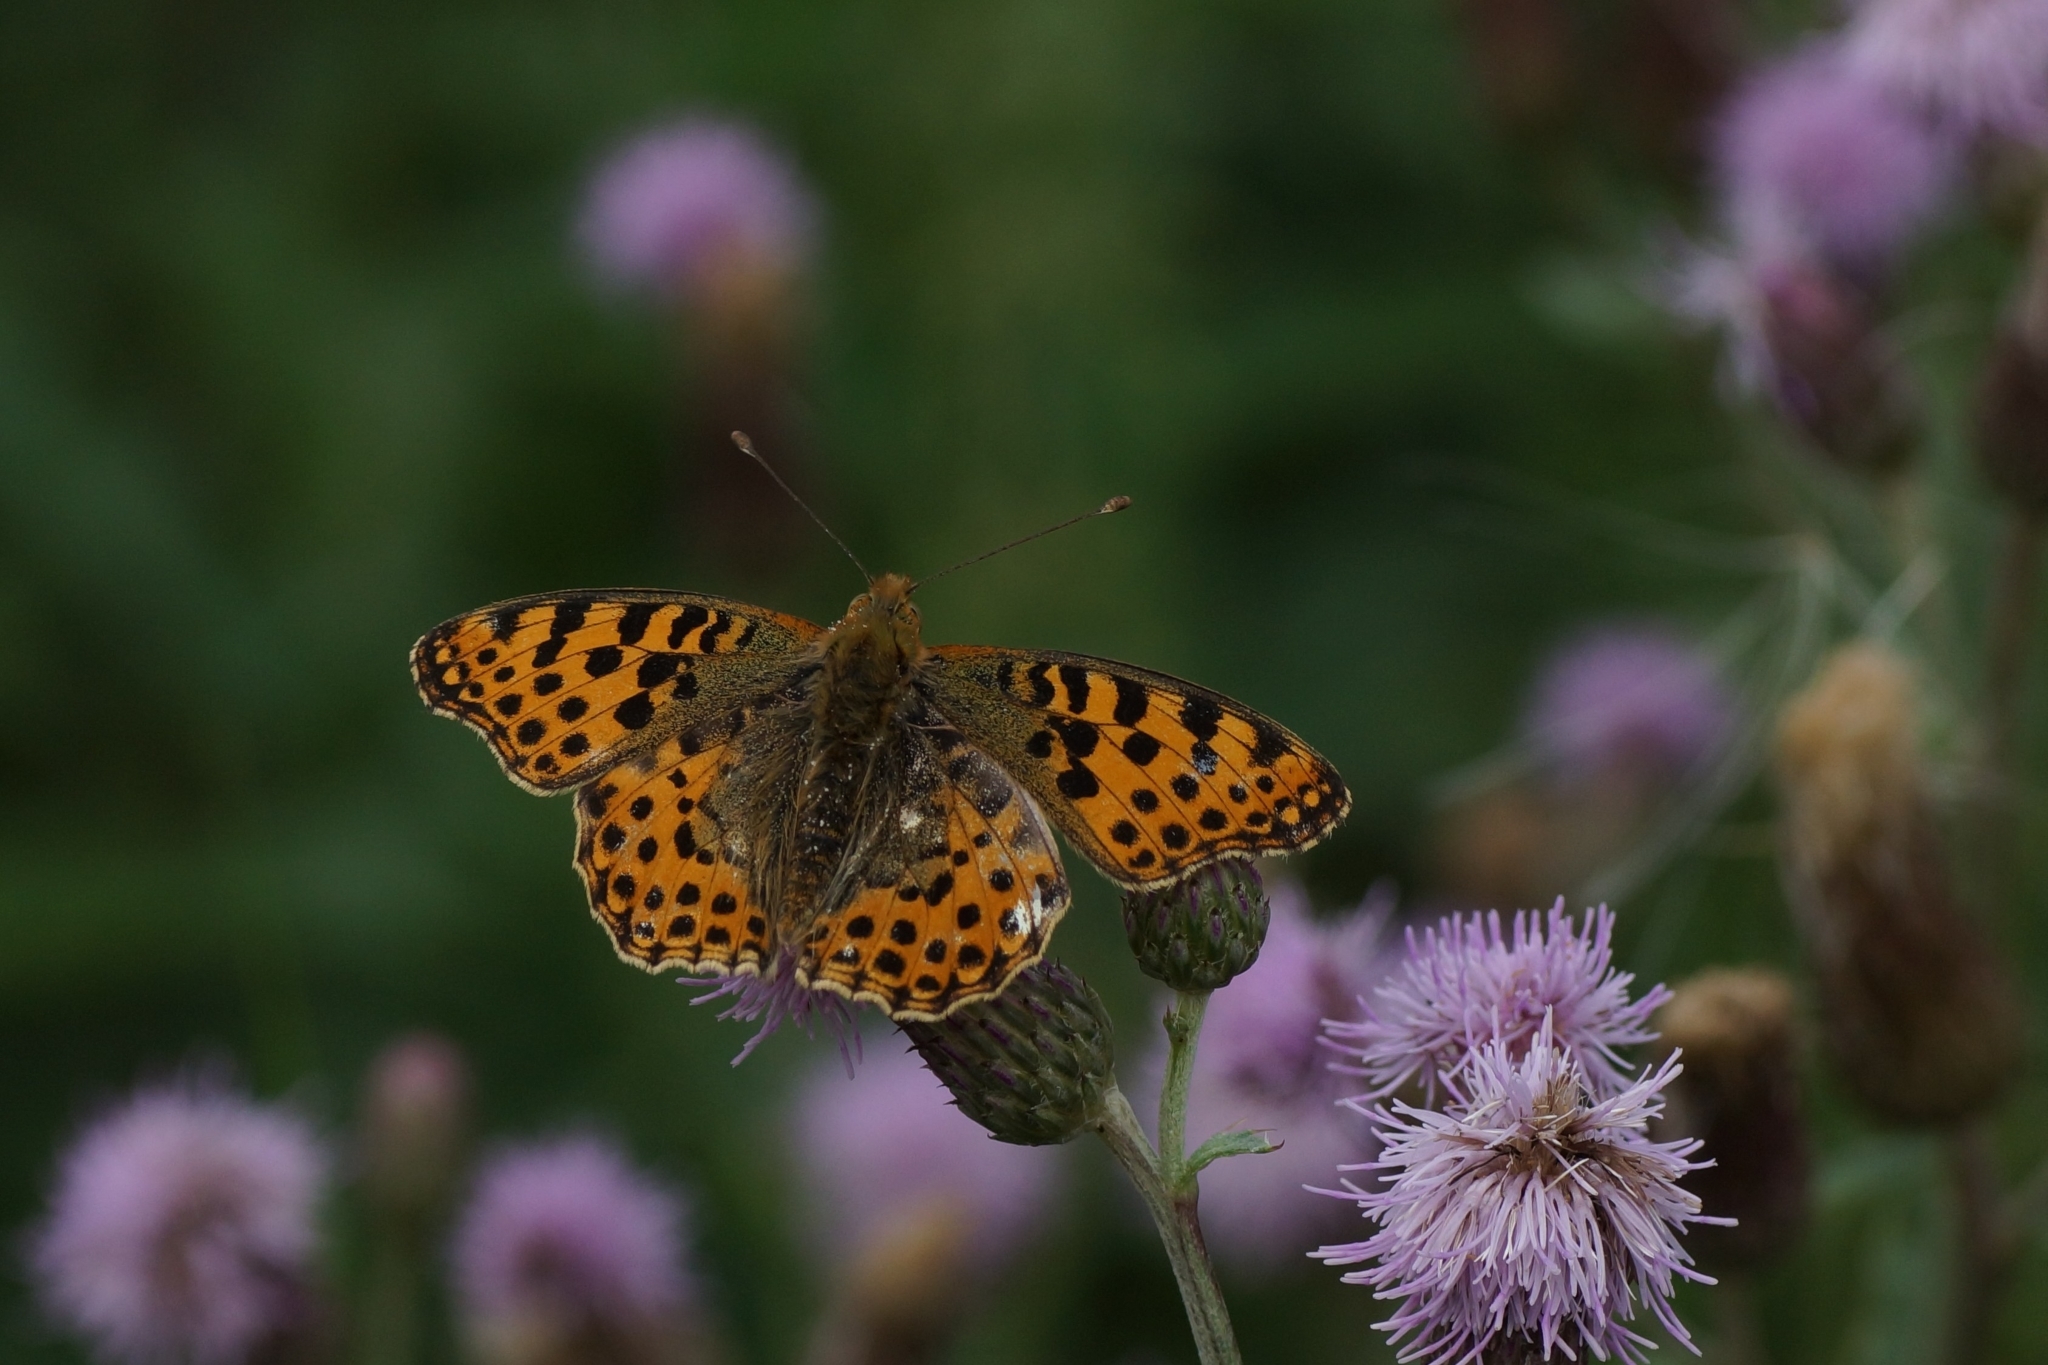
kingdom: Animalia
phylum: Arthropoda
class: Insecta
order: Lepidoptera
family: Nymphalidae
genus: Issoria
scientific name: Issoria lathonia
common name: Queen of spain fritillary
